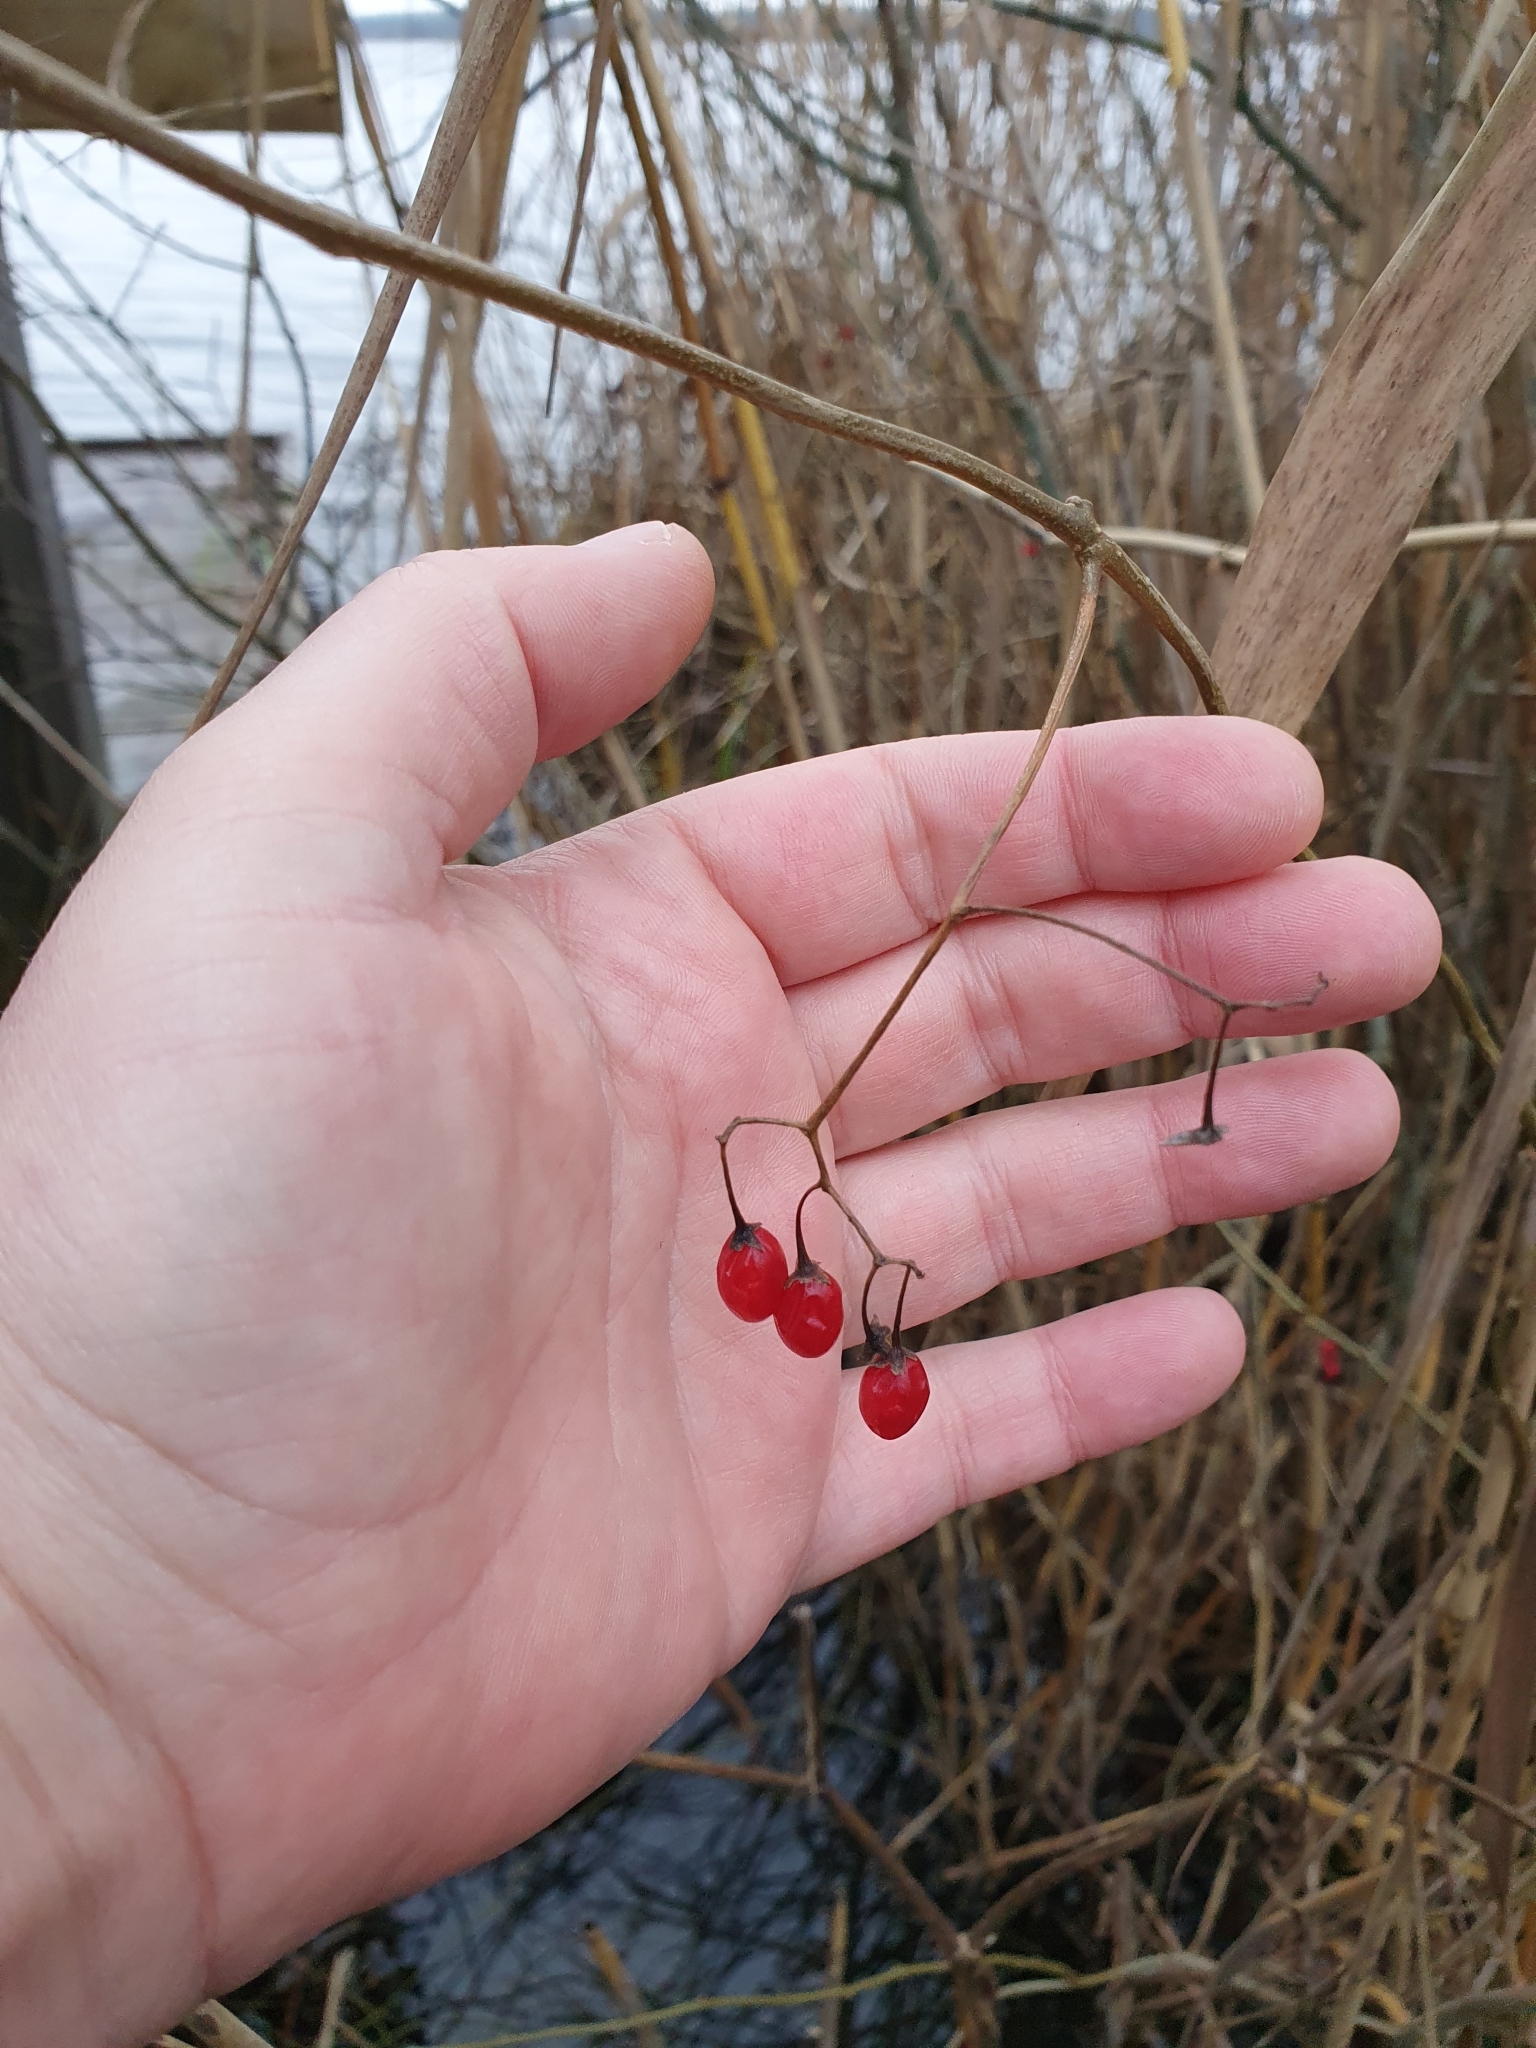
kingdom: Plantae
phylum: Tracheophyta
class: Magnoliopsida
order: Solanales
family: Solanaceae
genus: Solanum
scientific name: Solanum dulcamara
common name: Climbing nightshade
